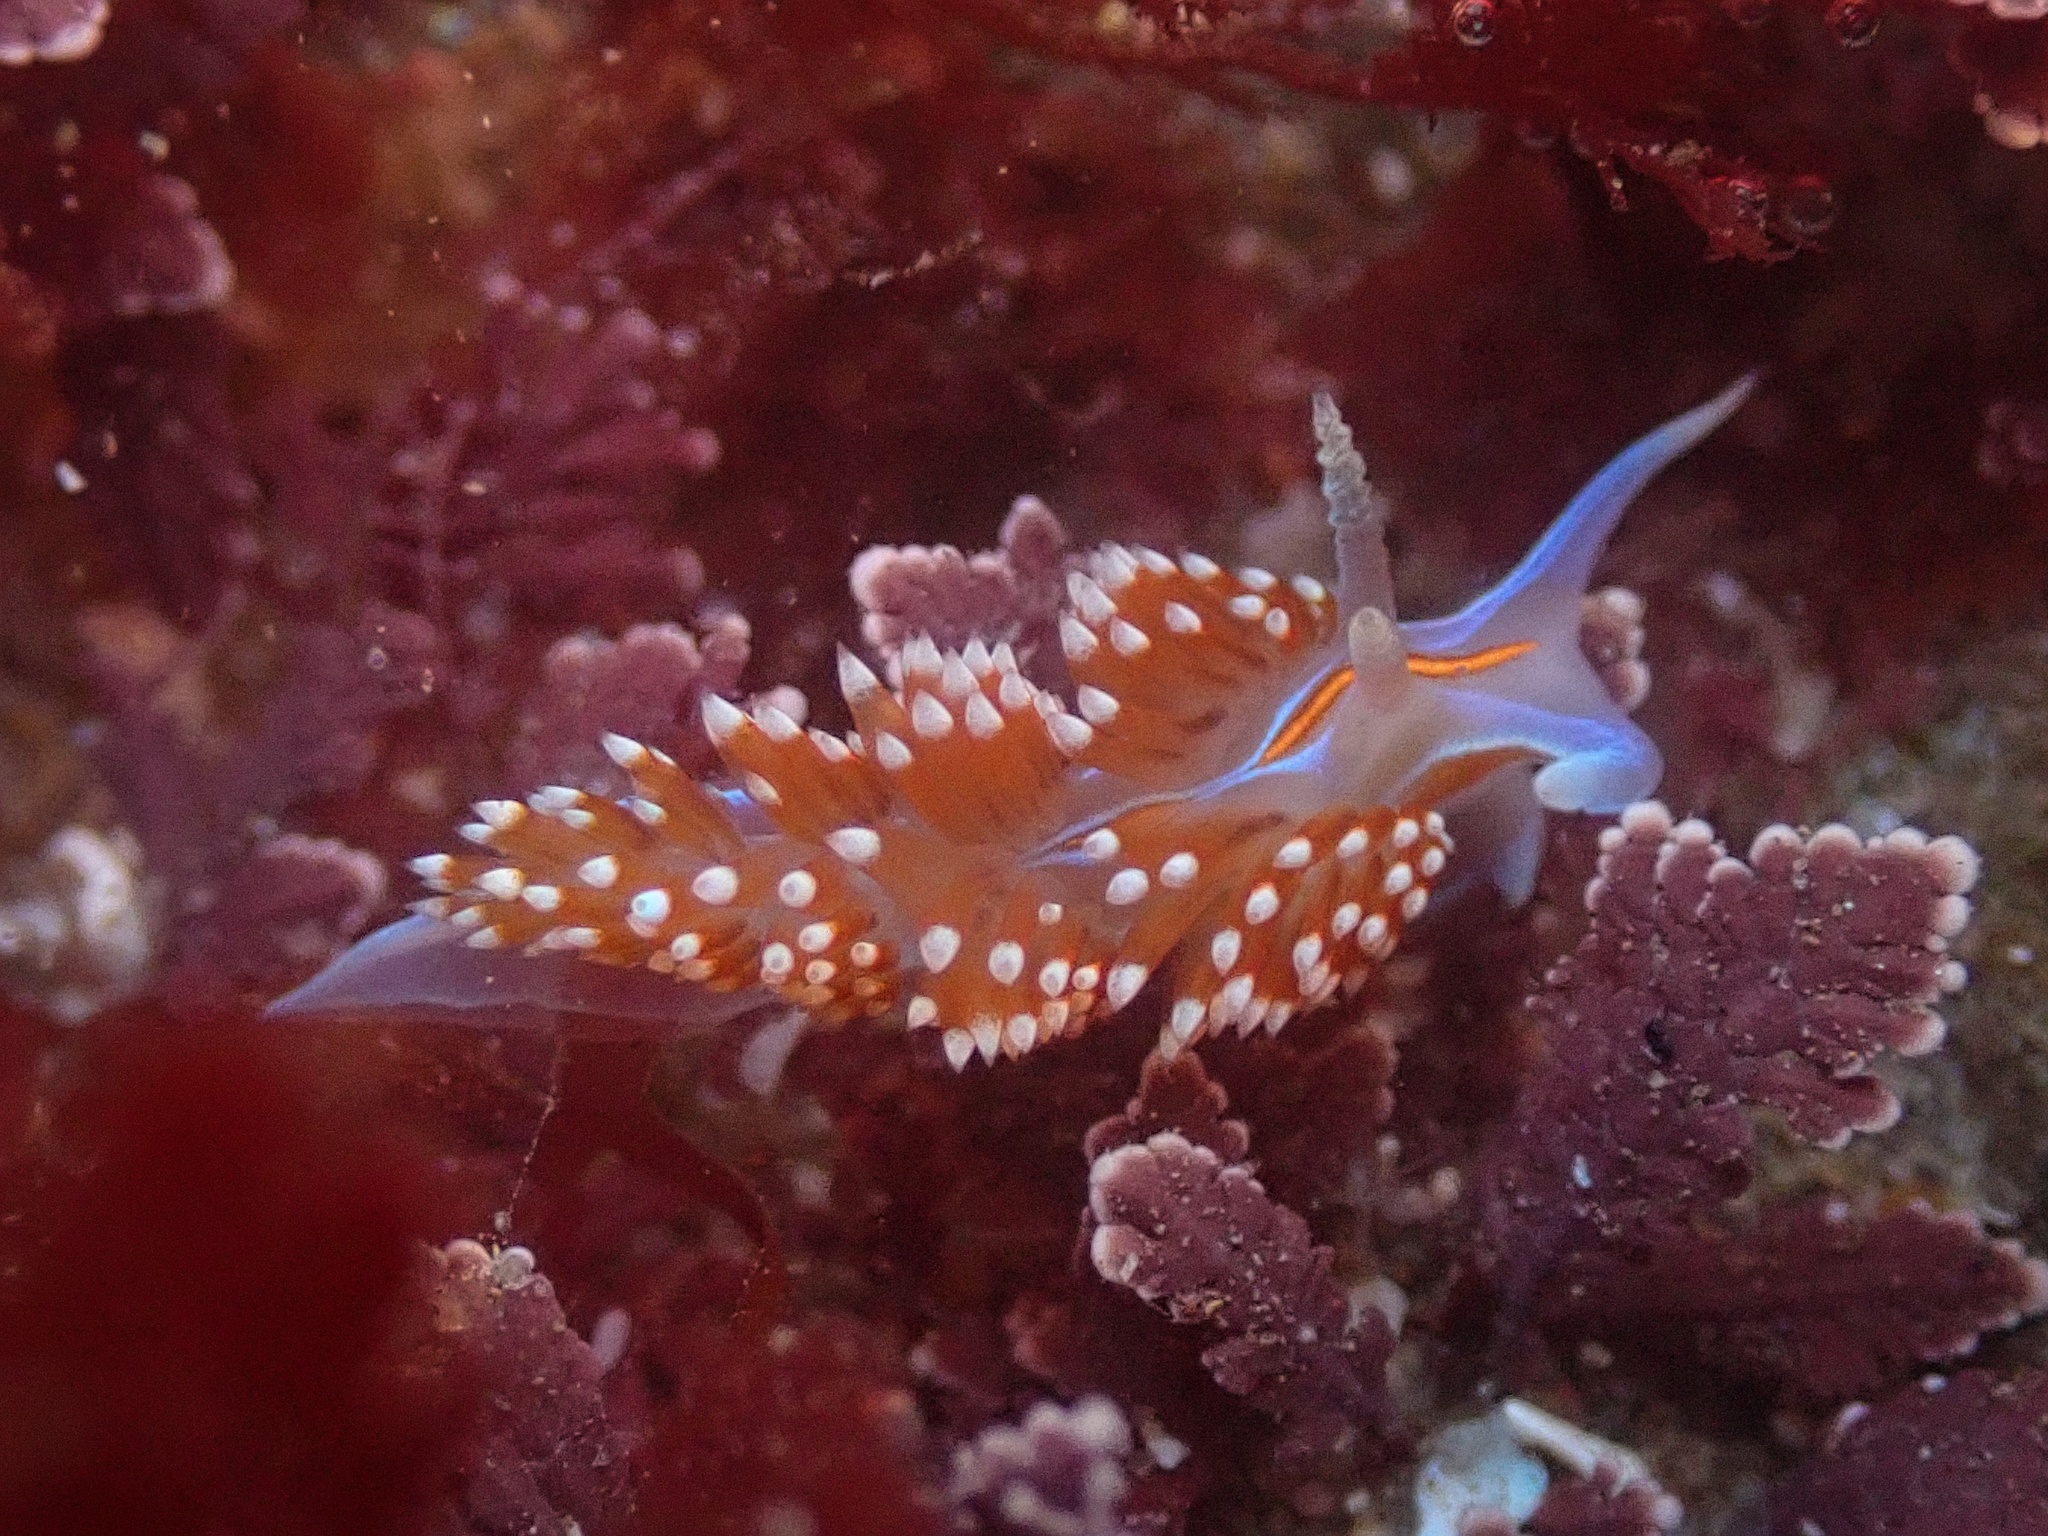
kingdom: Animalia
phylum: Mollusca
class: Gastropoda
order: Nudibranchia
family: Myrrhinidae
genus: Hermissenda
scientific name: Hermissenda opalescens
